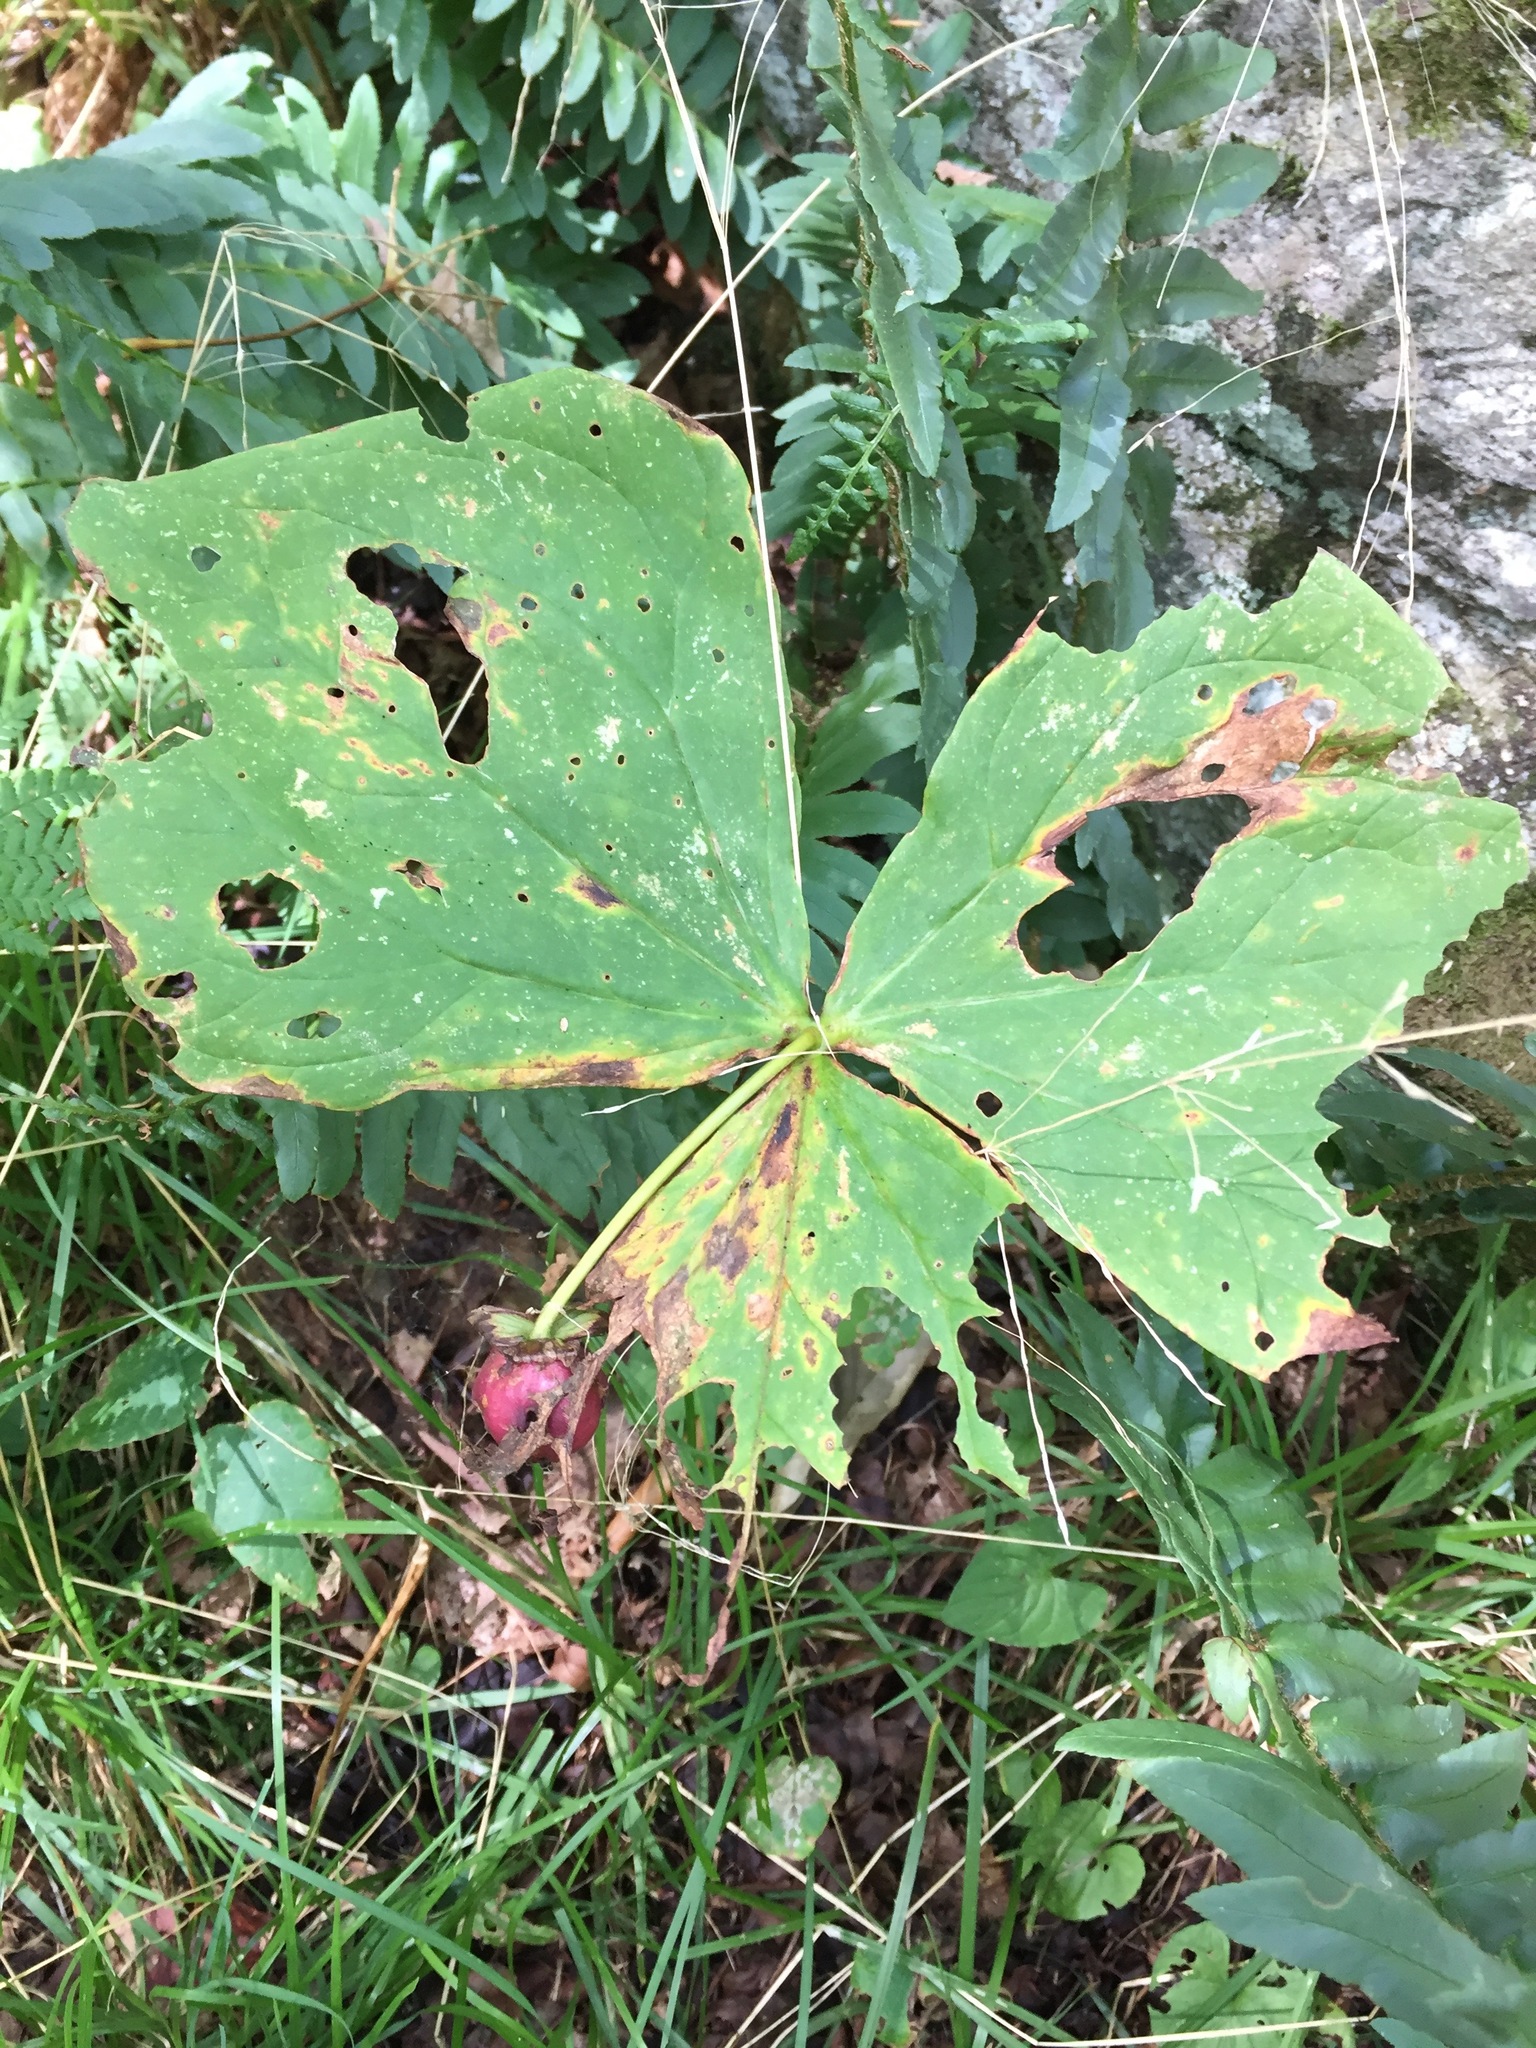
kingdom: Plantae
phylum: Tracheophyta
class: Liliopsida
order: Liliales
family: Melanthiaceae
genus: Trillium
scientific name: Trillium erectum
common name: Purple trillium
